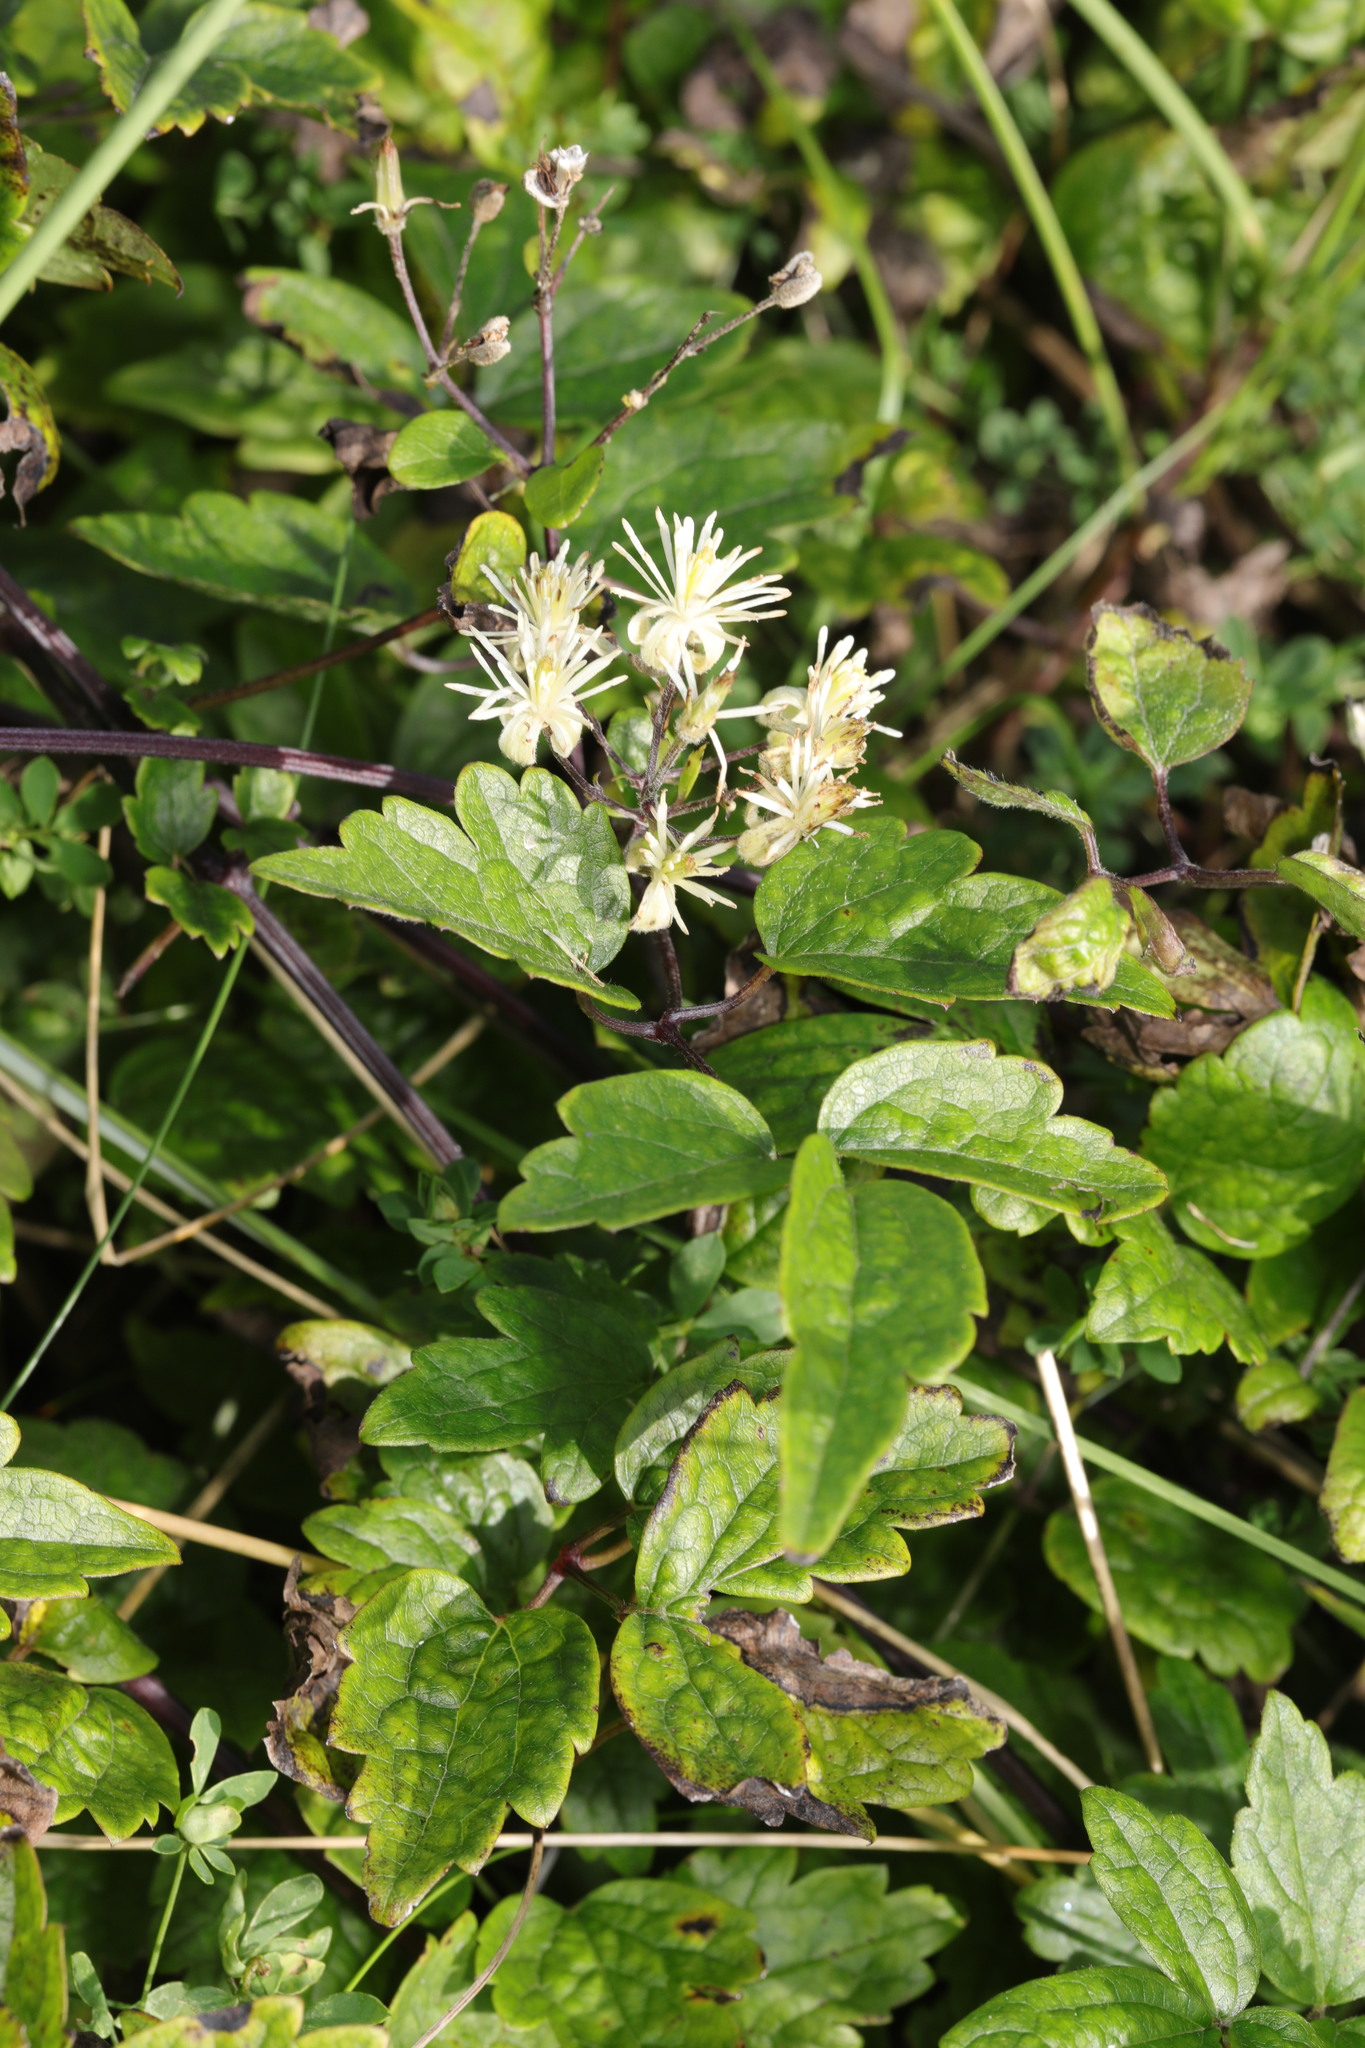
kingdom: Plantae
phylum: Tracheophyta
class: Magnoliopsida
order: Ranunculales
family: Ranunculaceae
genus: Clematis
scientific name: Clematis vitalba
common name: Evergreen clematis
